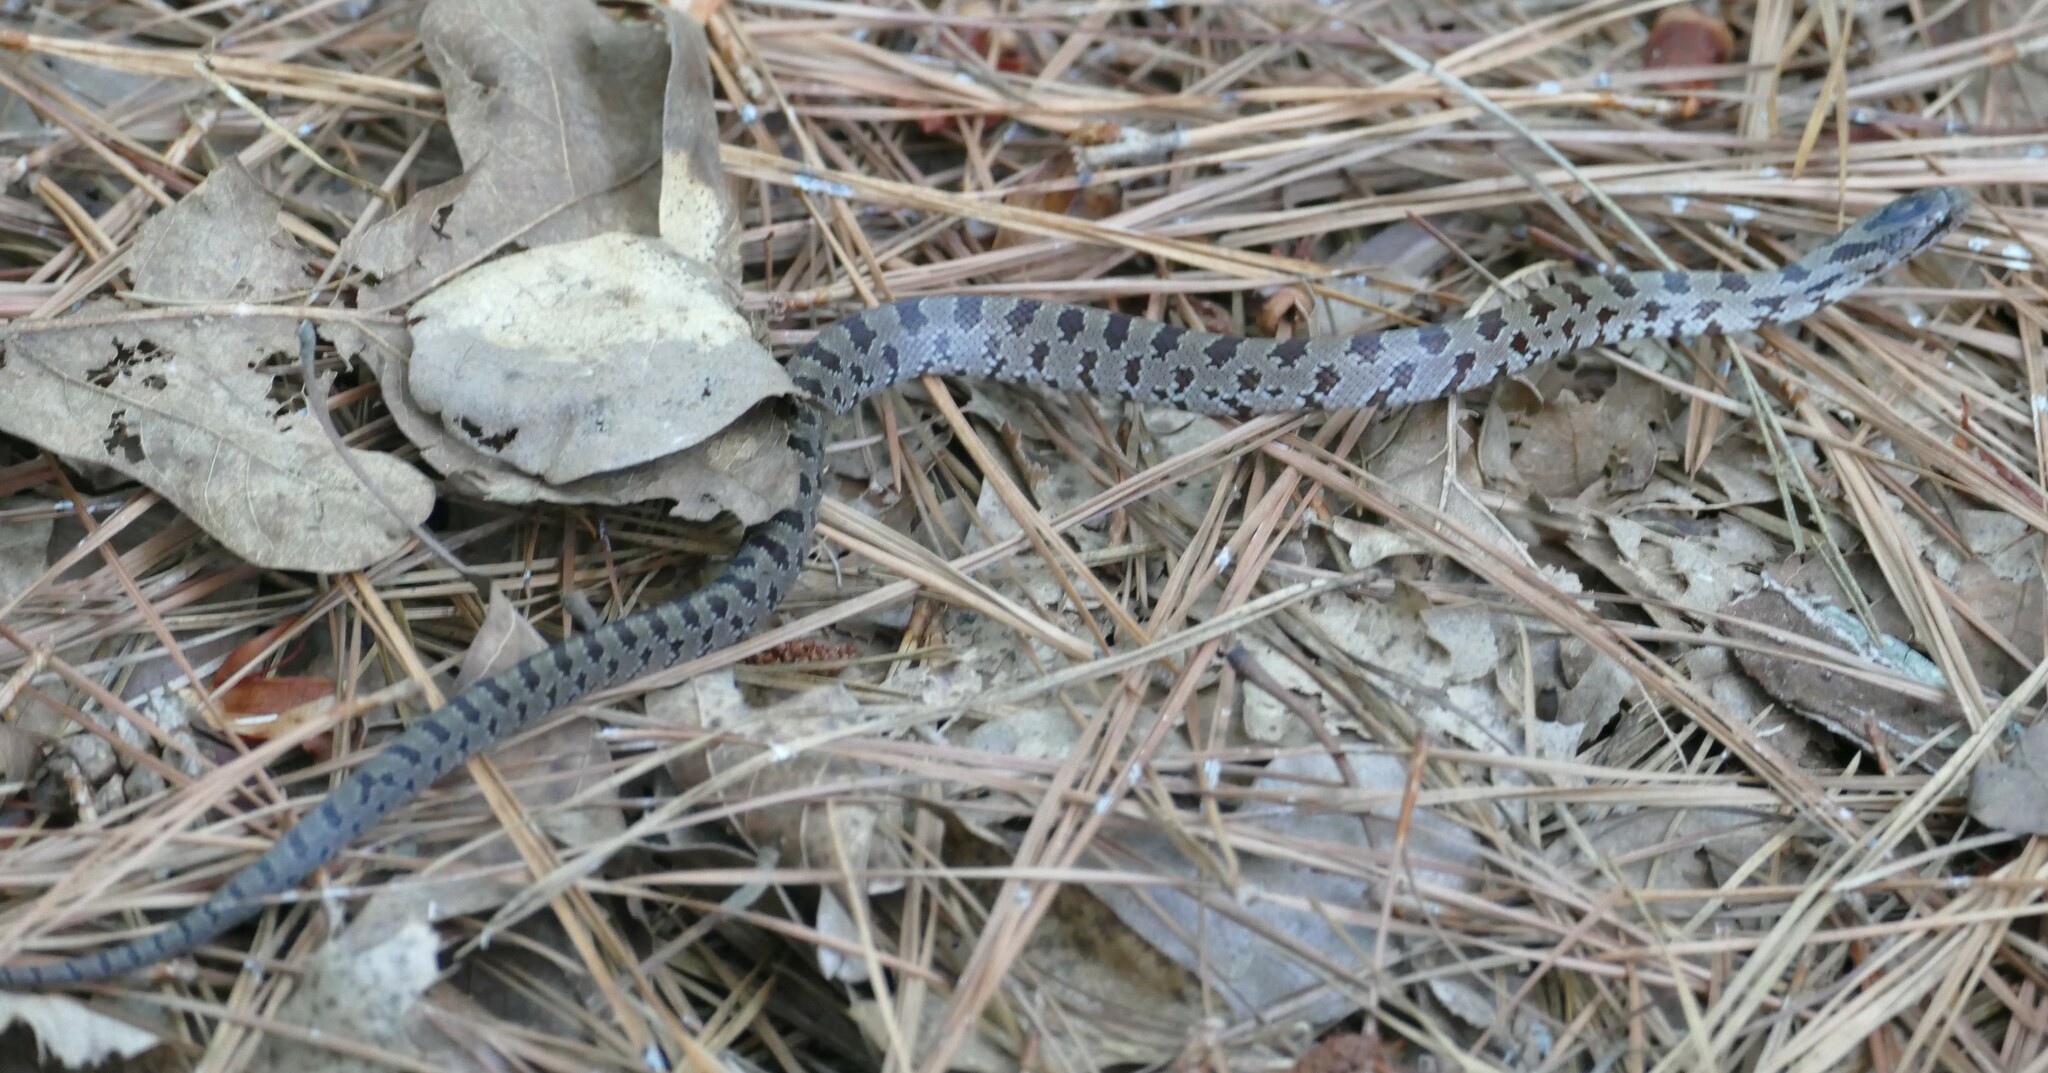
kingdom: Animalia
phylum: Chordata
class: Squamata
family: Colubridae
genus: Lampropeltis
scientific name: Lampropeltis calligaster
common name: Prairie kingsnake
